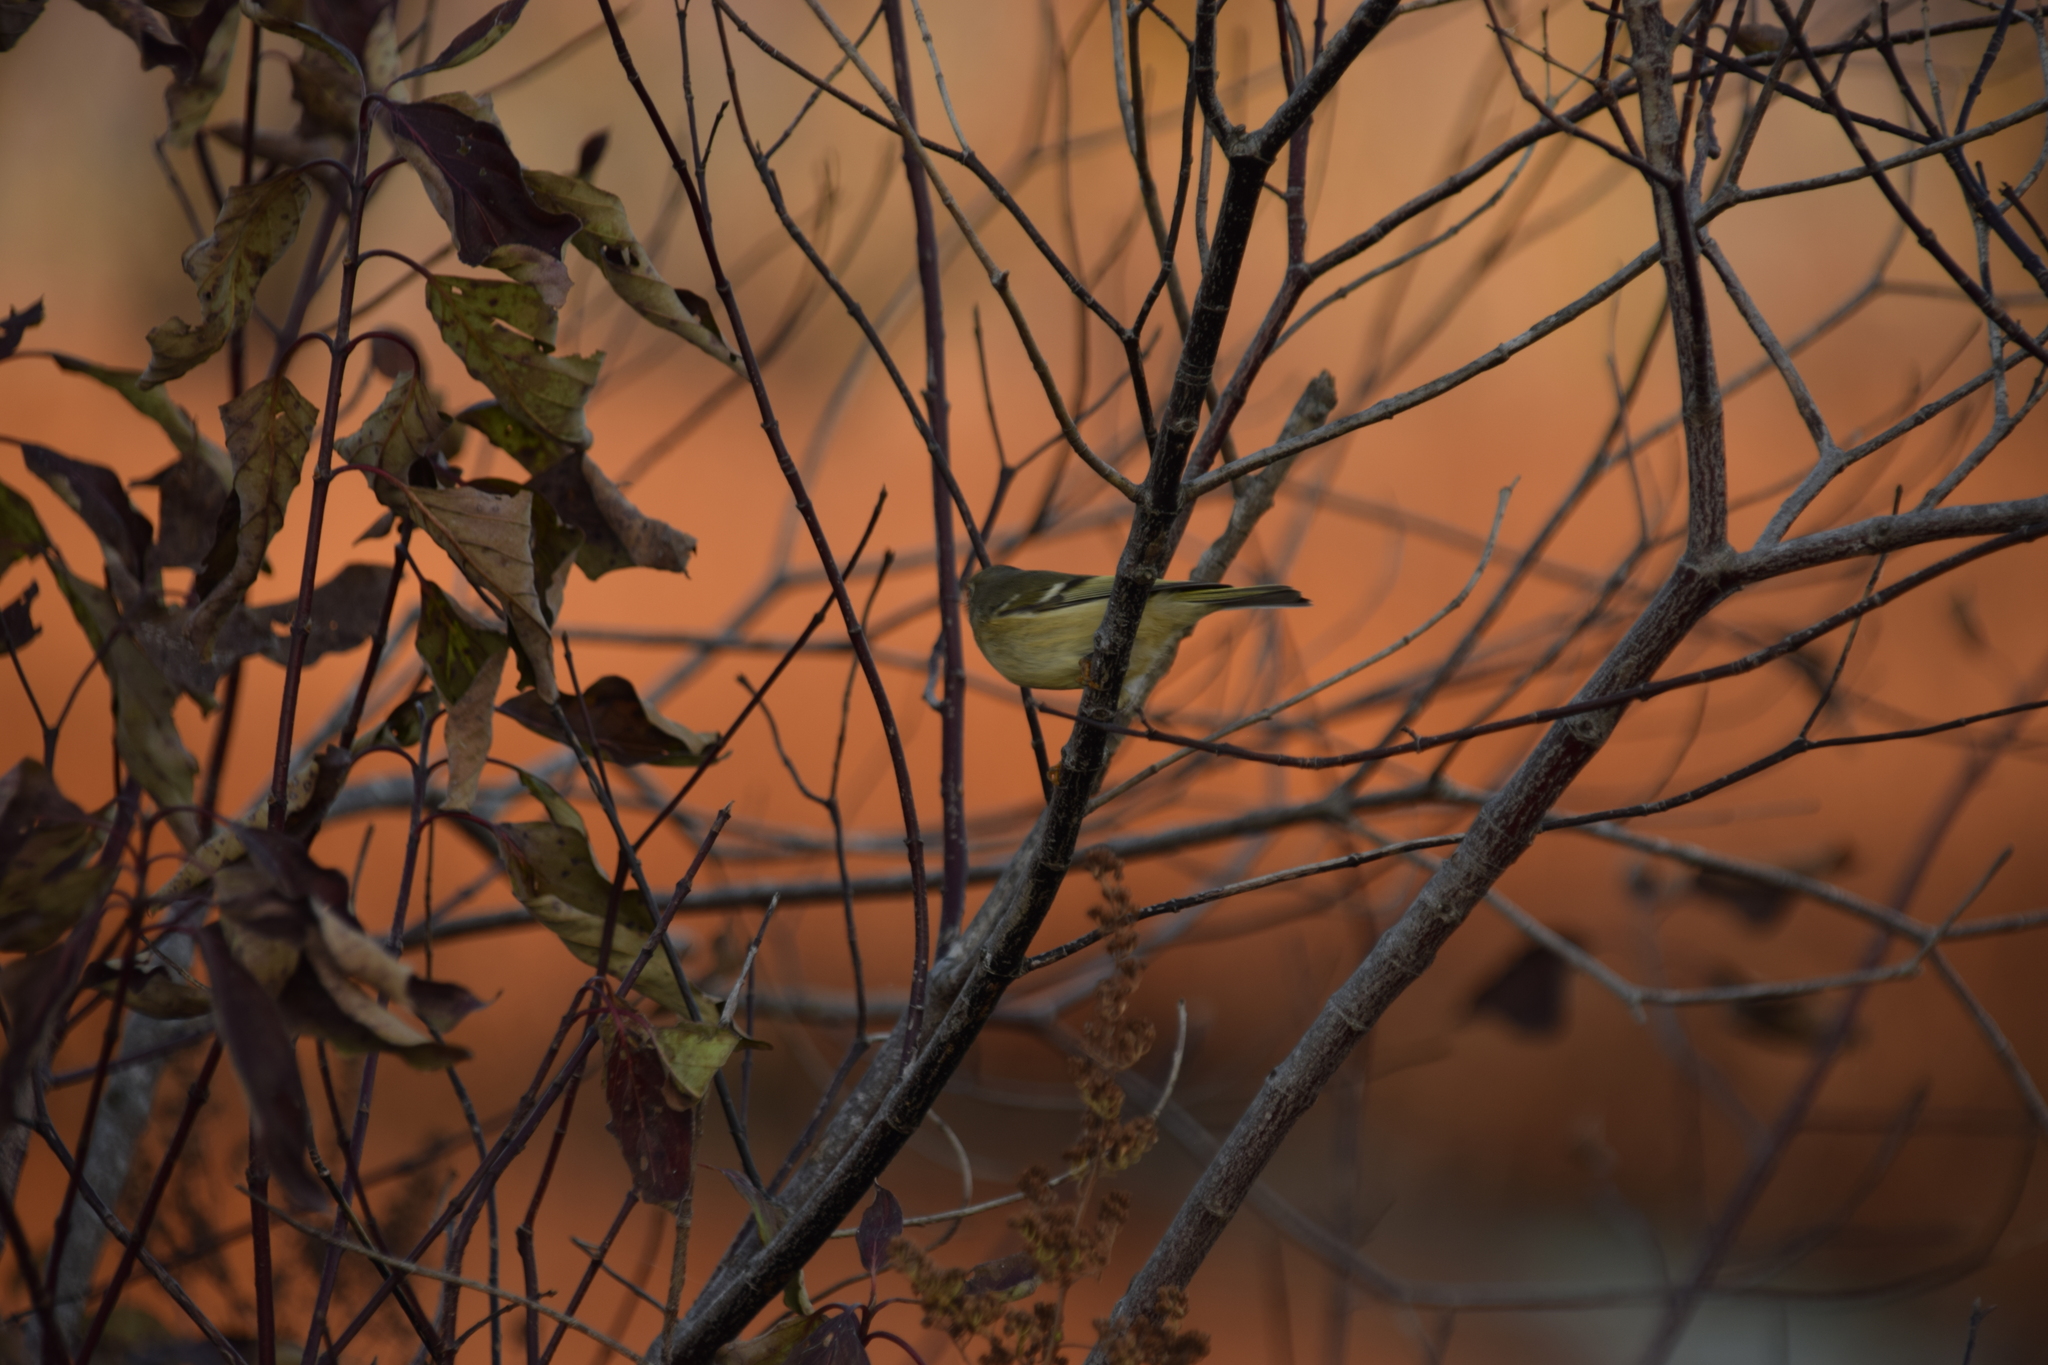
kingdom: Animalia
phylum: Chordata
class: Aves
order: Passeriformes
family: Regulidae
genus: Regulus
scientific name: Regulus calendula
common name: Ruby-crowned kinglet
